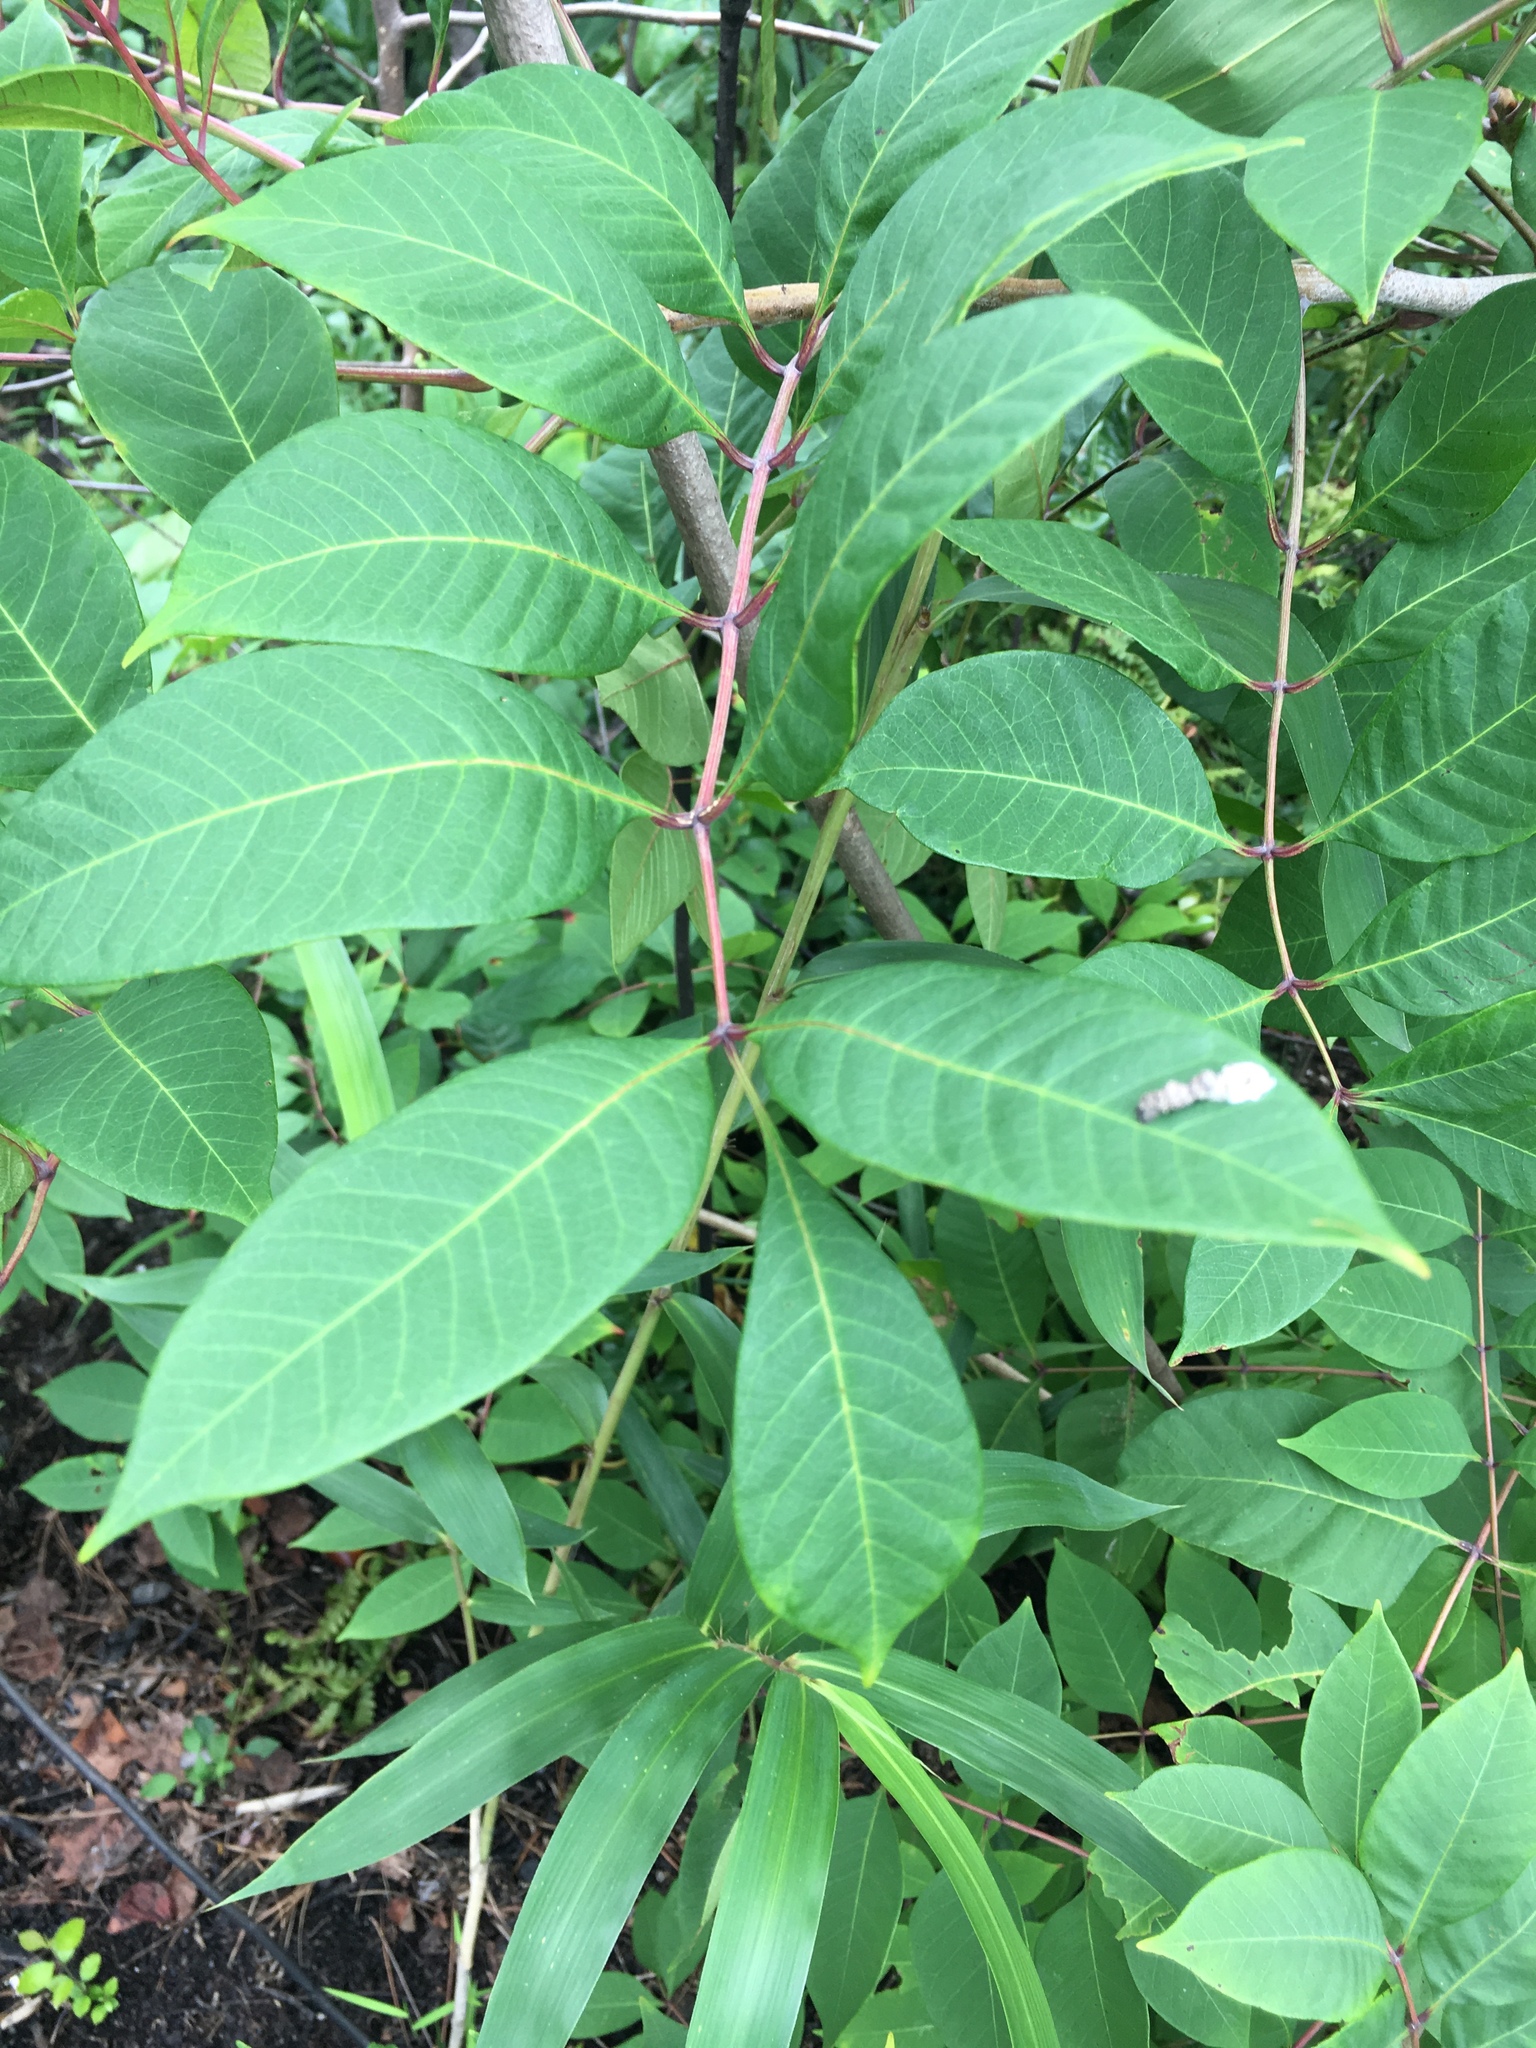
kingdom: Plantae
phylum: Tracheophyta
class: Magnoliopsida
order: Sapindales
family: Anacardiaceae
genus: Toxicodendron
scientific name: Toxicodendron vernix
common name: Poison sumac
